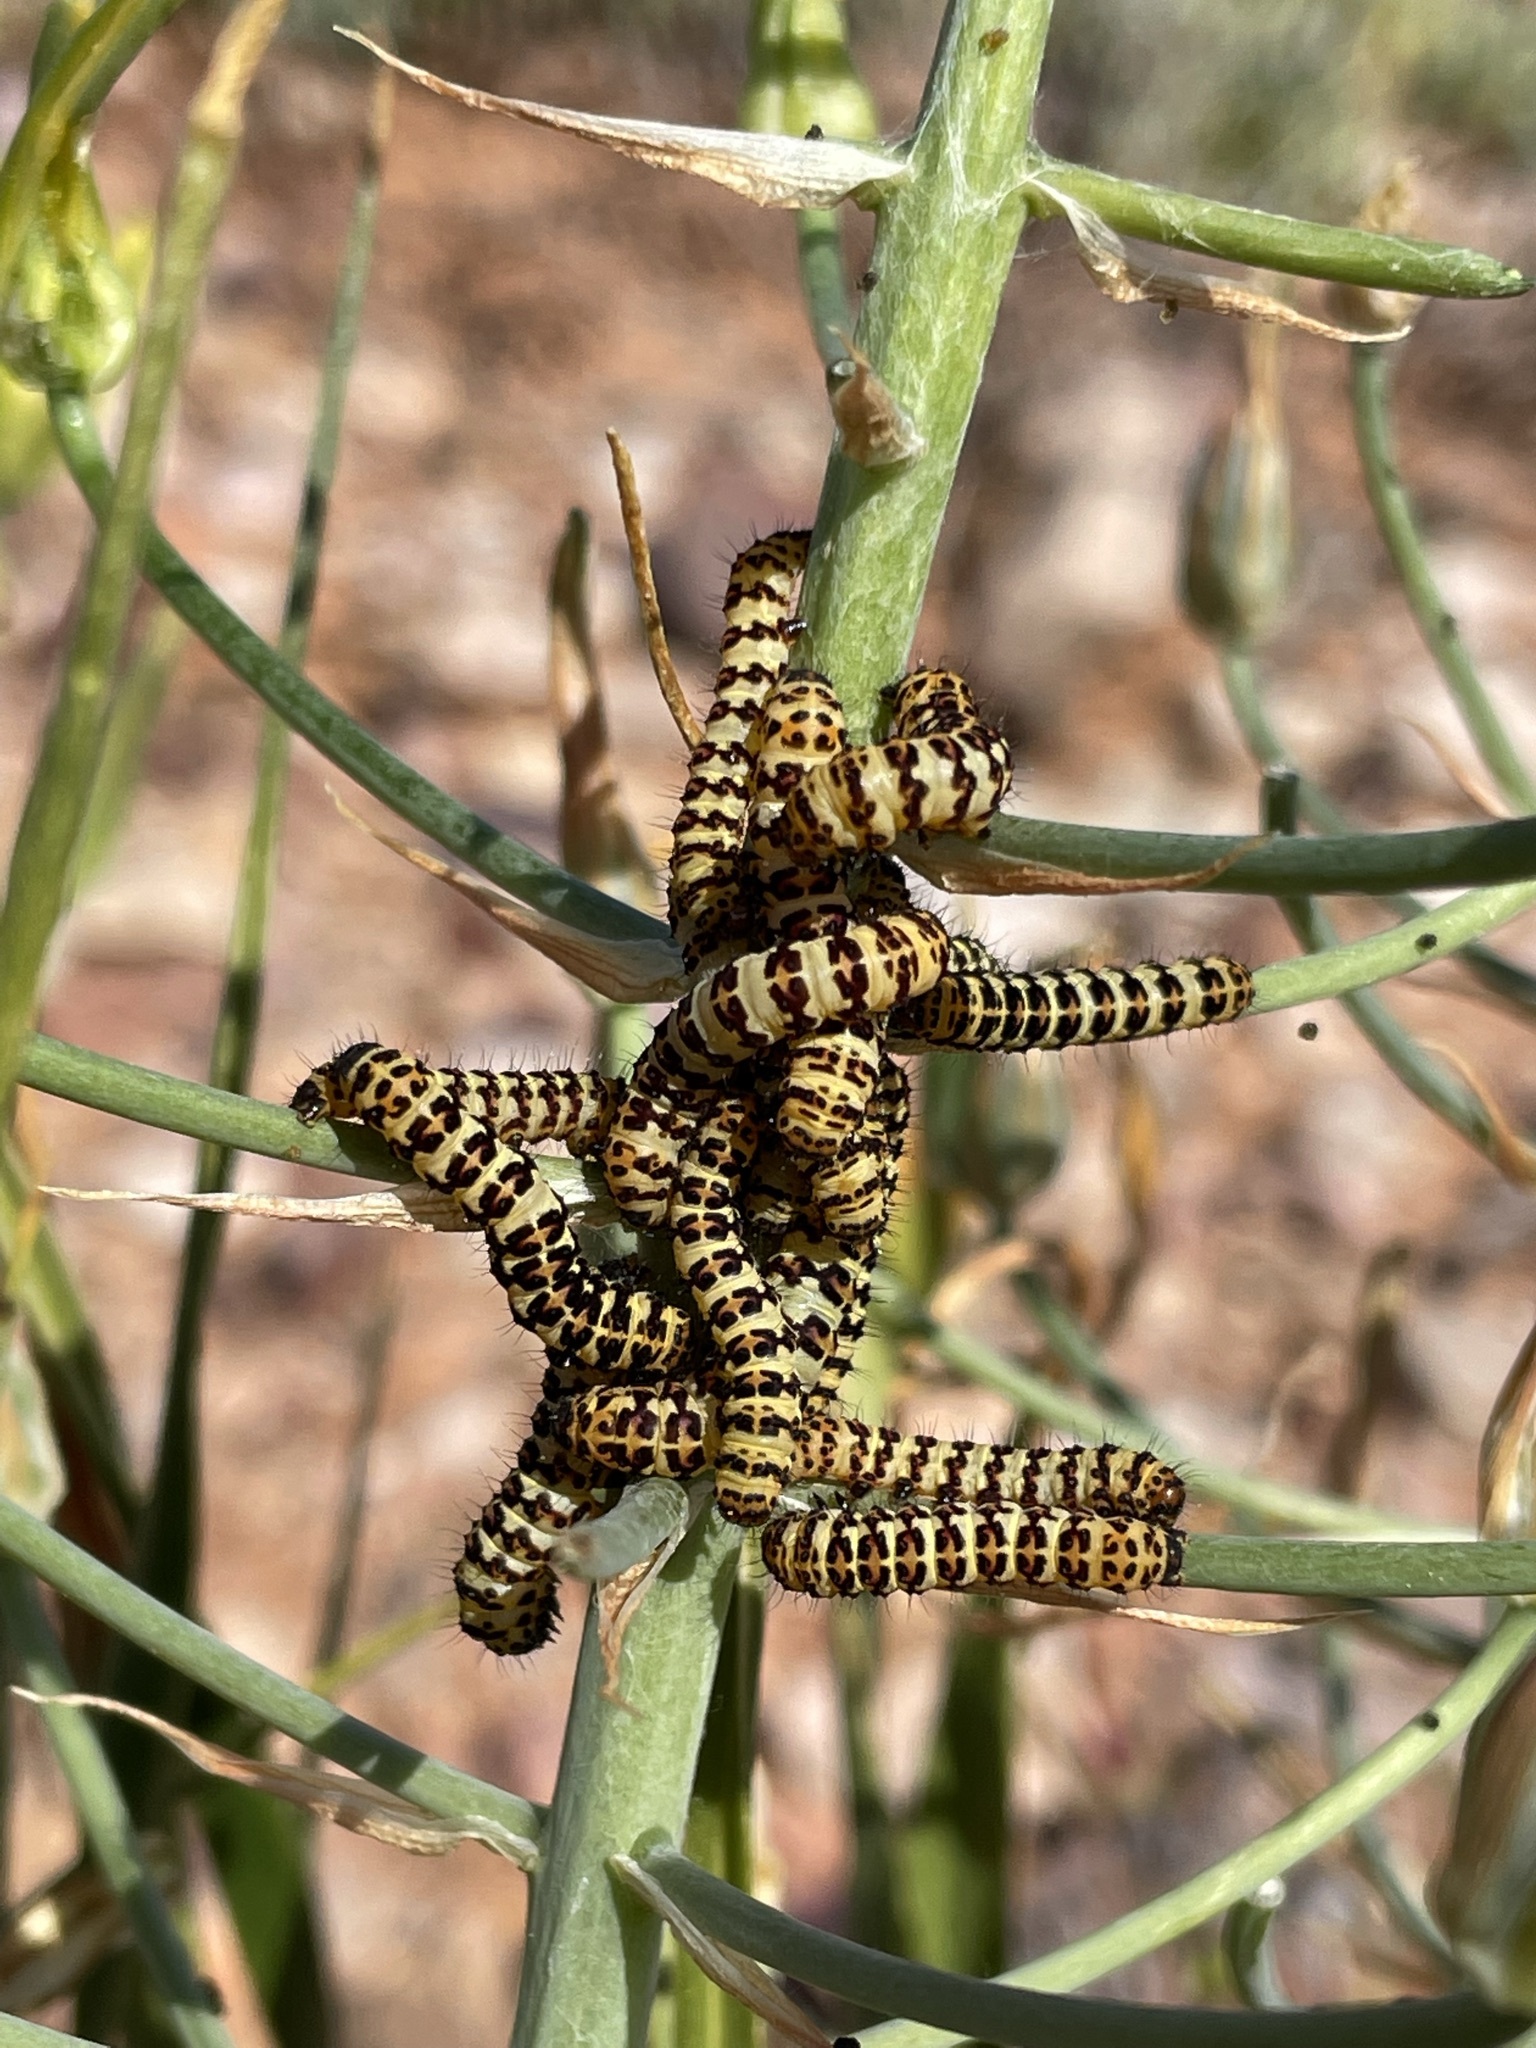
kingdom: Animalia
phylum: Arthropoda
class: Insecta
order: Lepidoptera
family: Noctuidae
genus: Diaphone
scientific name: Diaphone eumela
